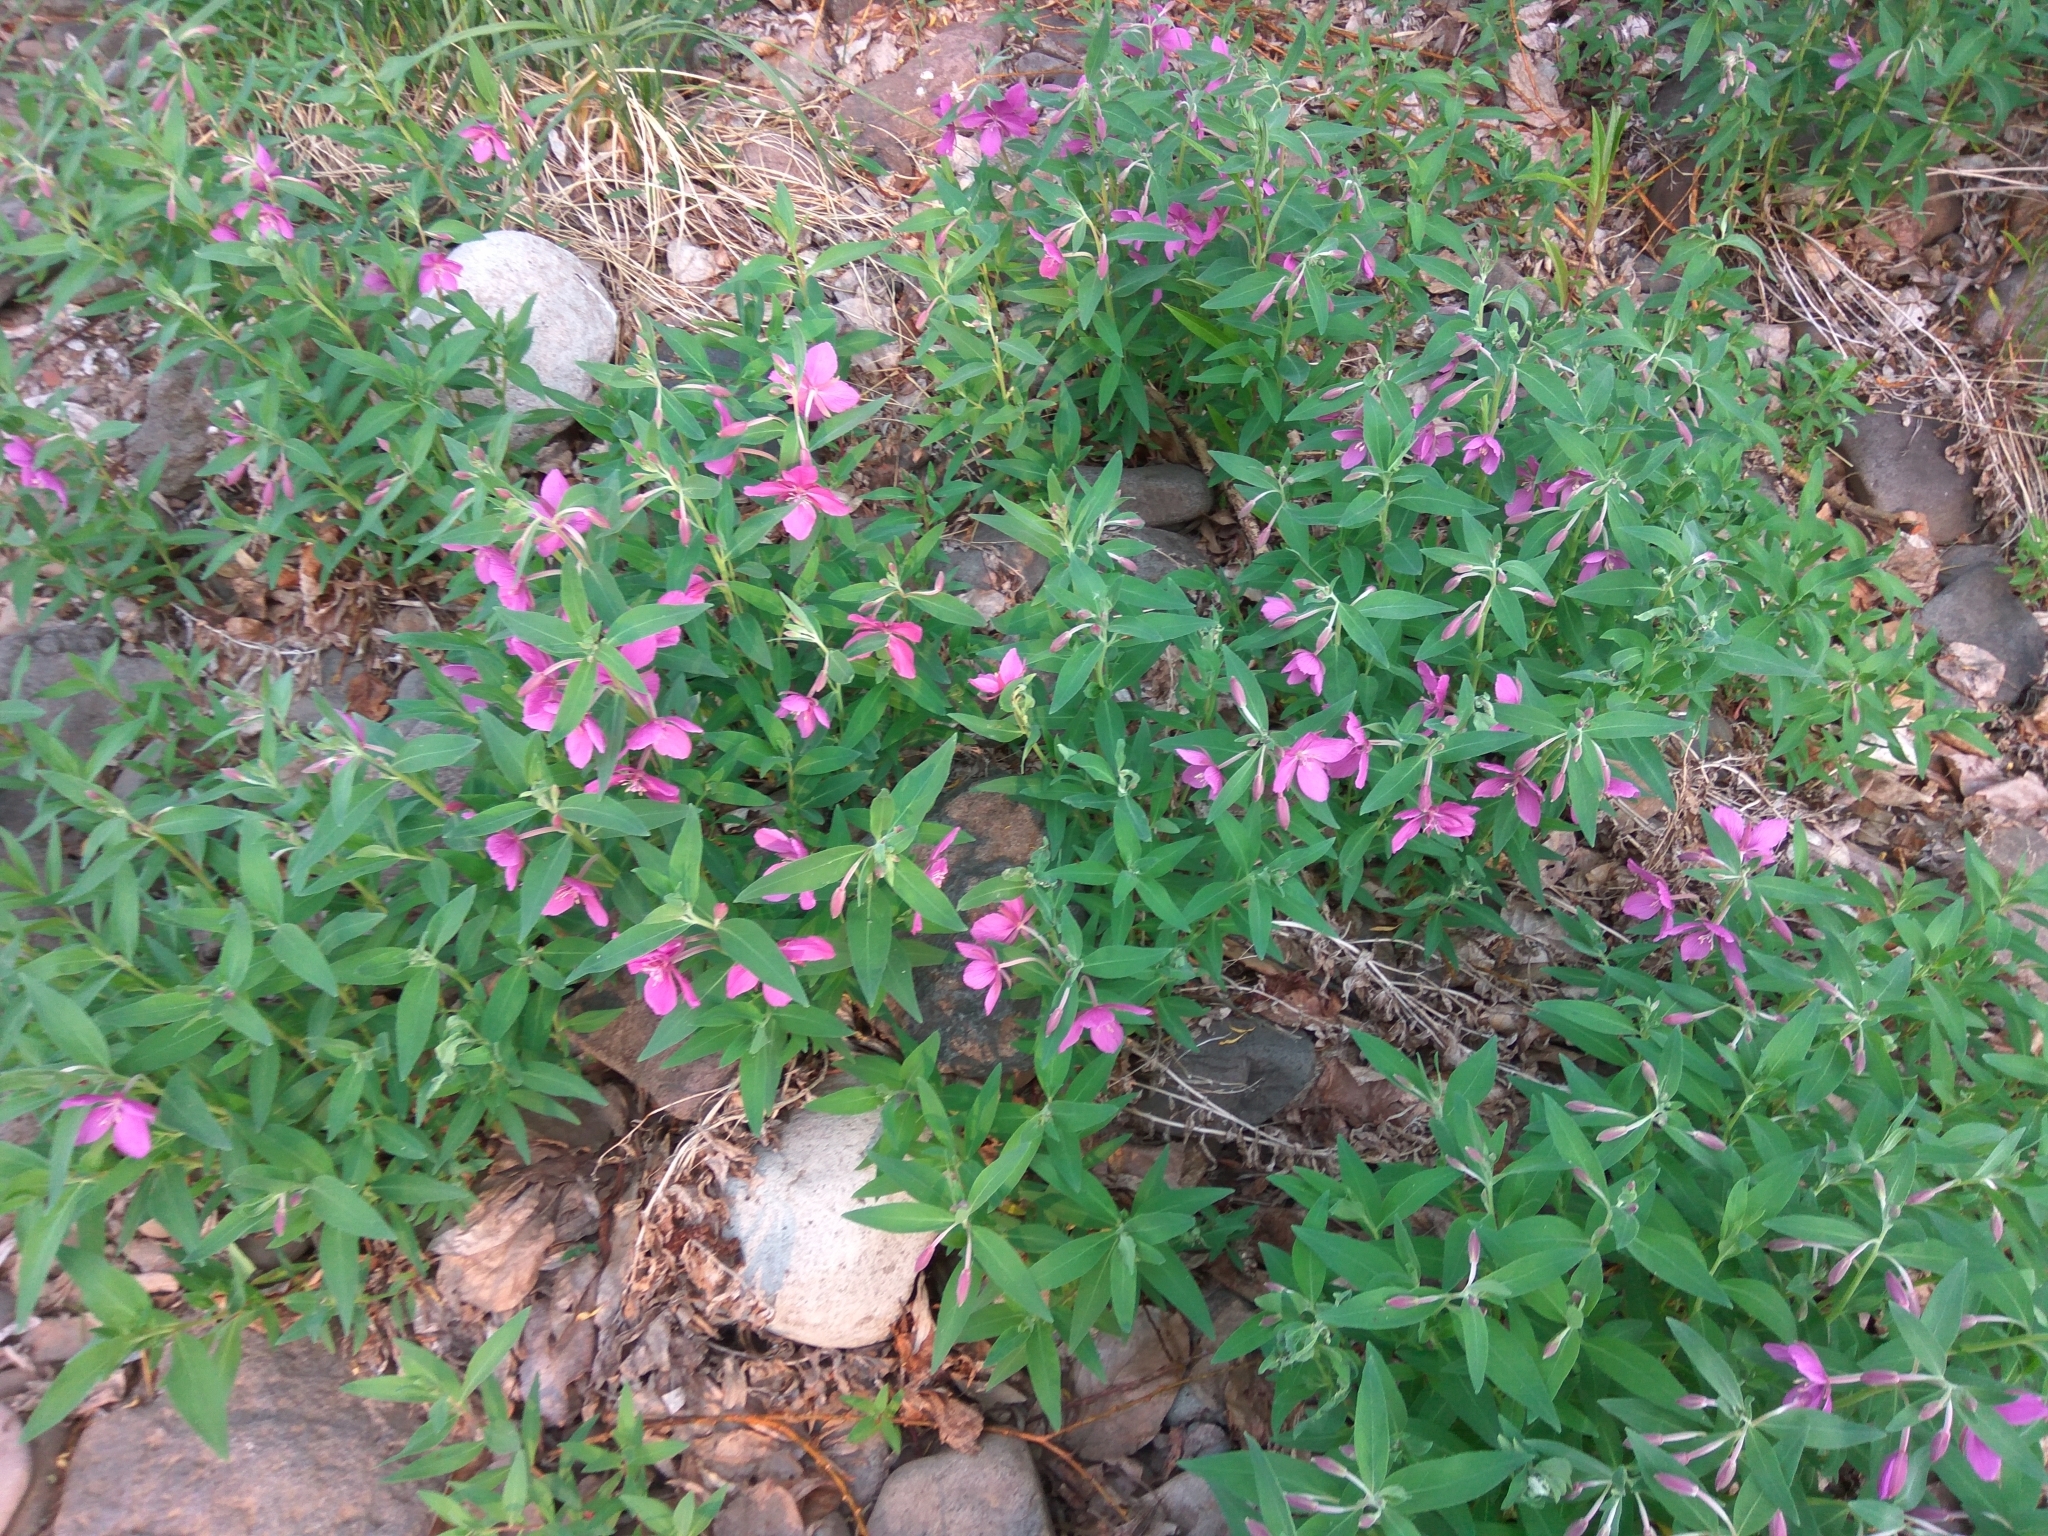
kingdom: Plantae
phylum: Tracheophyta
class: Magnoliopsida
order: Myrtales
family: Onagraceae
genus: Chamaenerion
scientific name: Chamaenerion latifolium
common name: Dwarf fireweed
